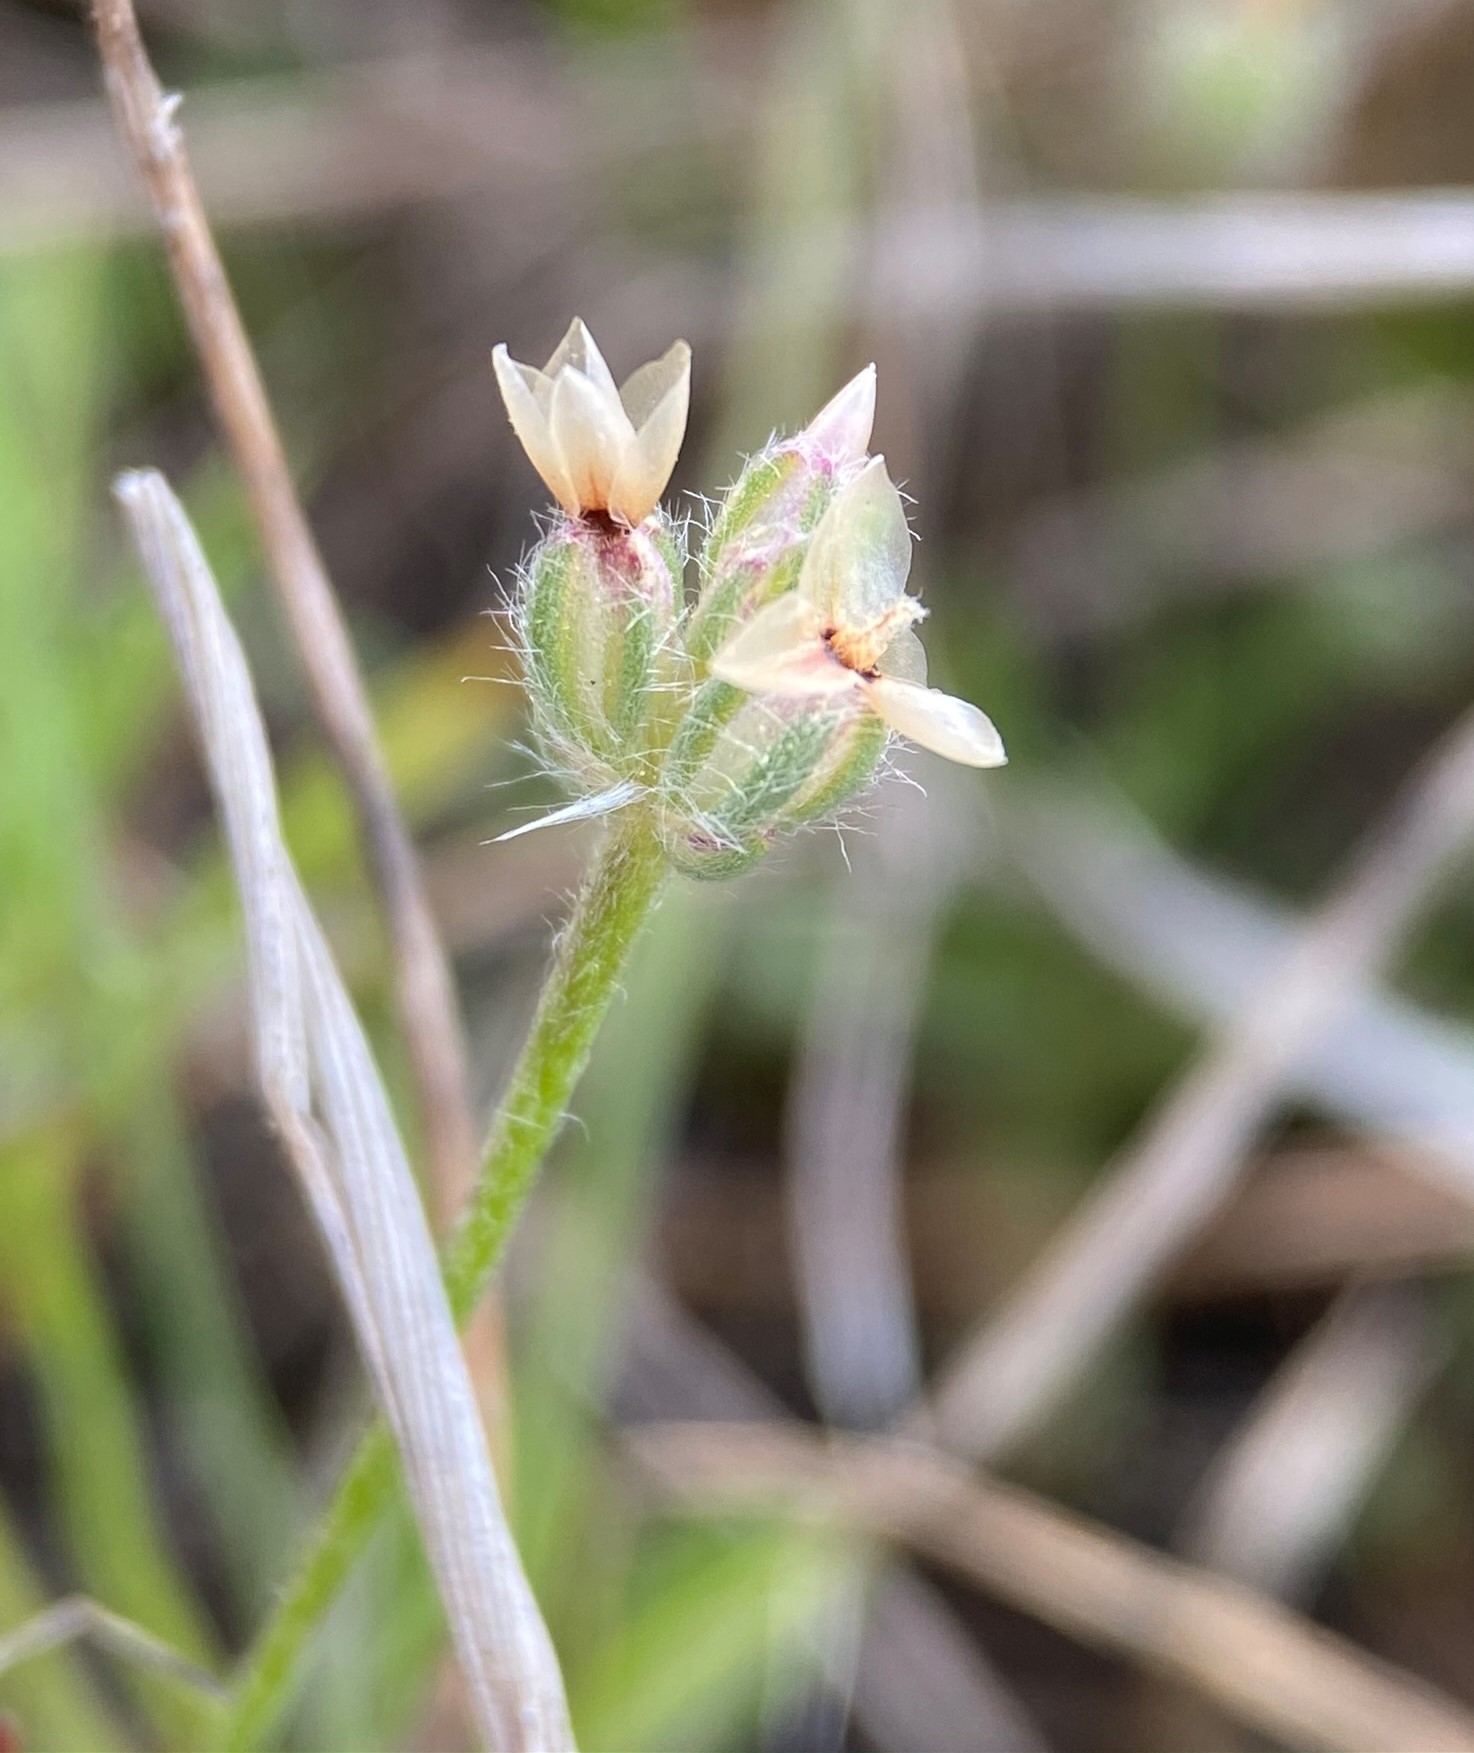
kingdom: Plantae
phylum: Tracheophyta
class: Magnoliopsida
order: Lamiales
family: Plantaginaceae
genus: Plantago
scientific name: Plantago erecta
